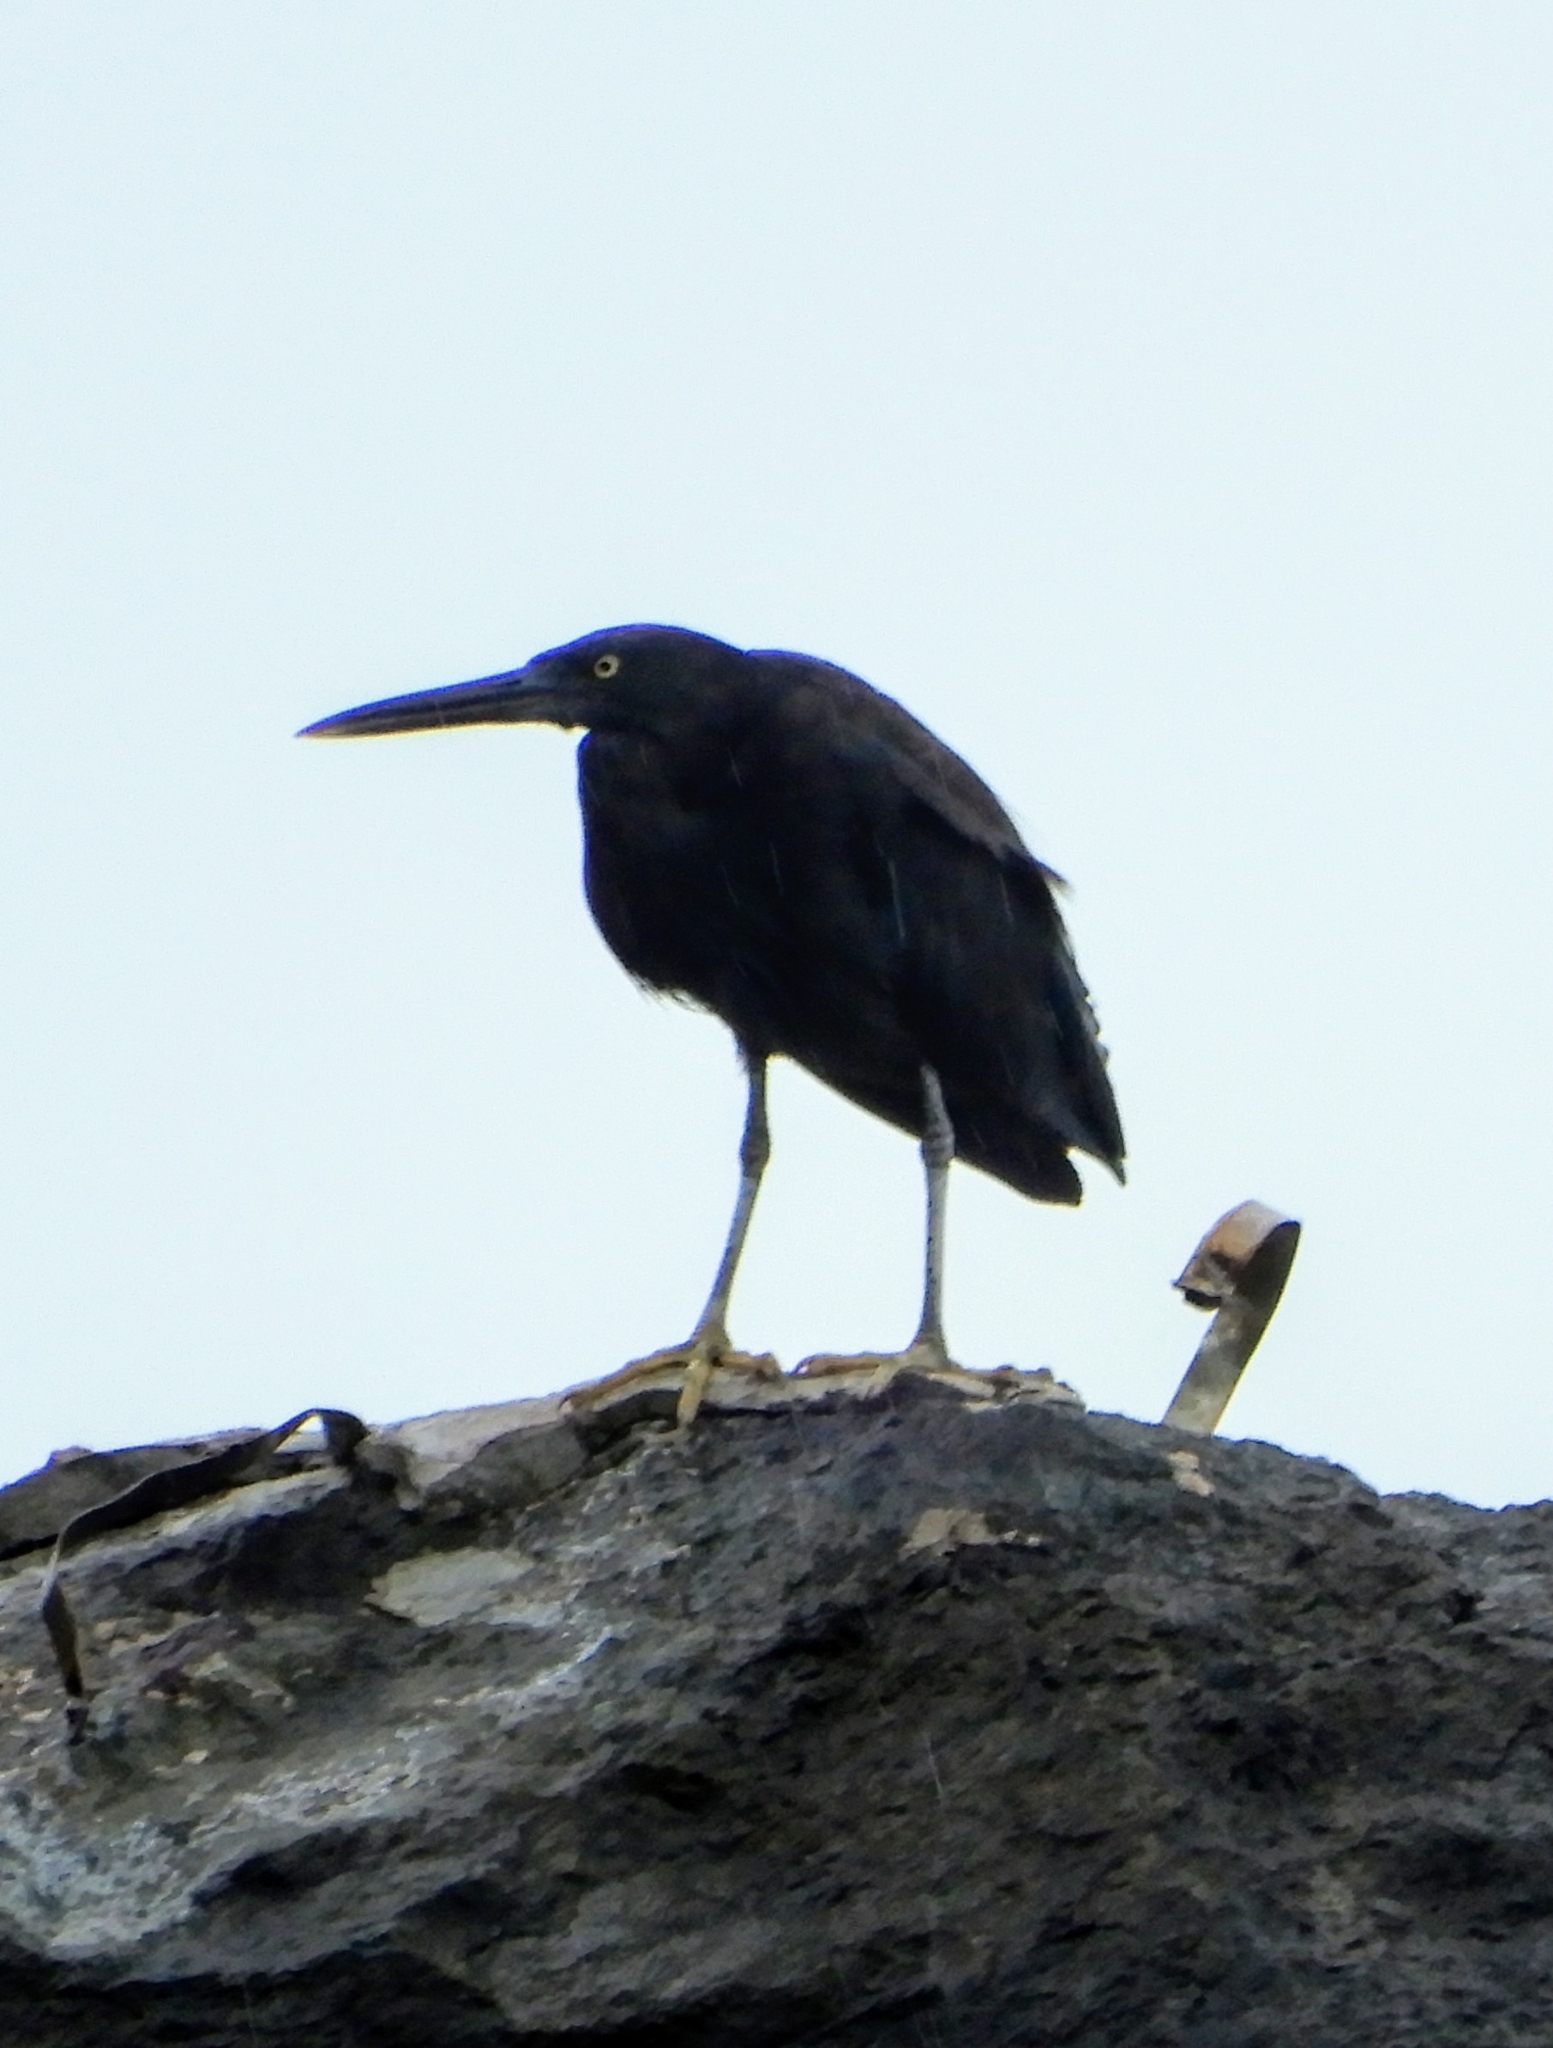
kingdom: Animalia
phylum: Chordata
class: Aves
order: Pelecaniformes
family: Ardeidae
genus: Egretta
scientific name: Egretta sacra
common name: Pacific reef heron
